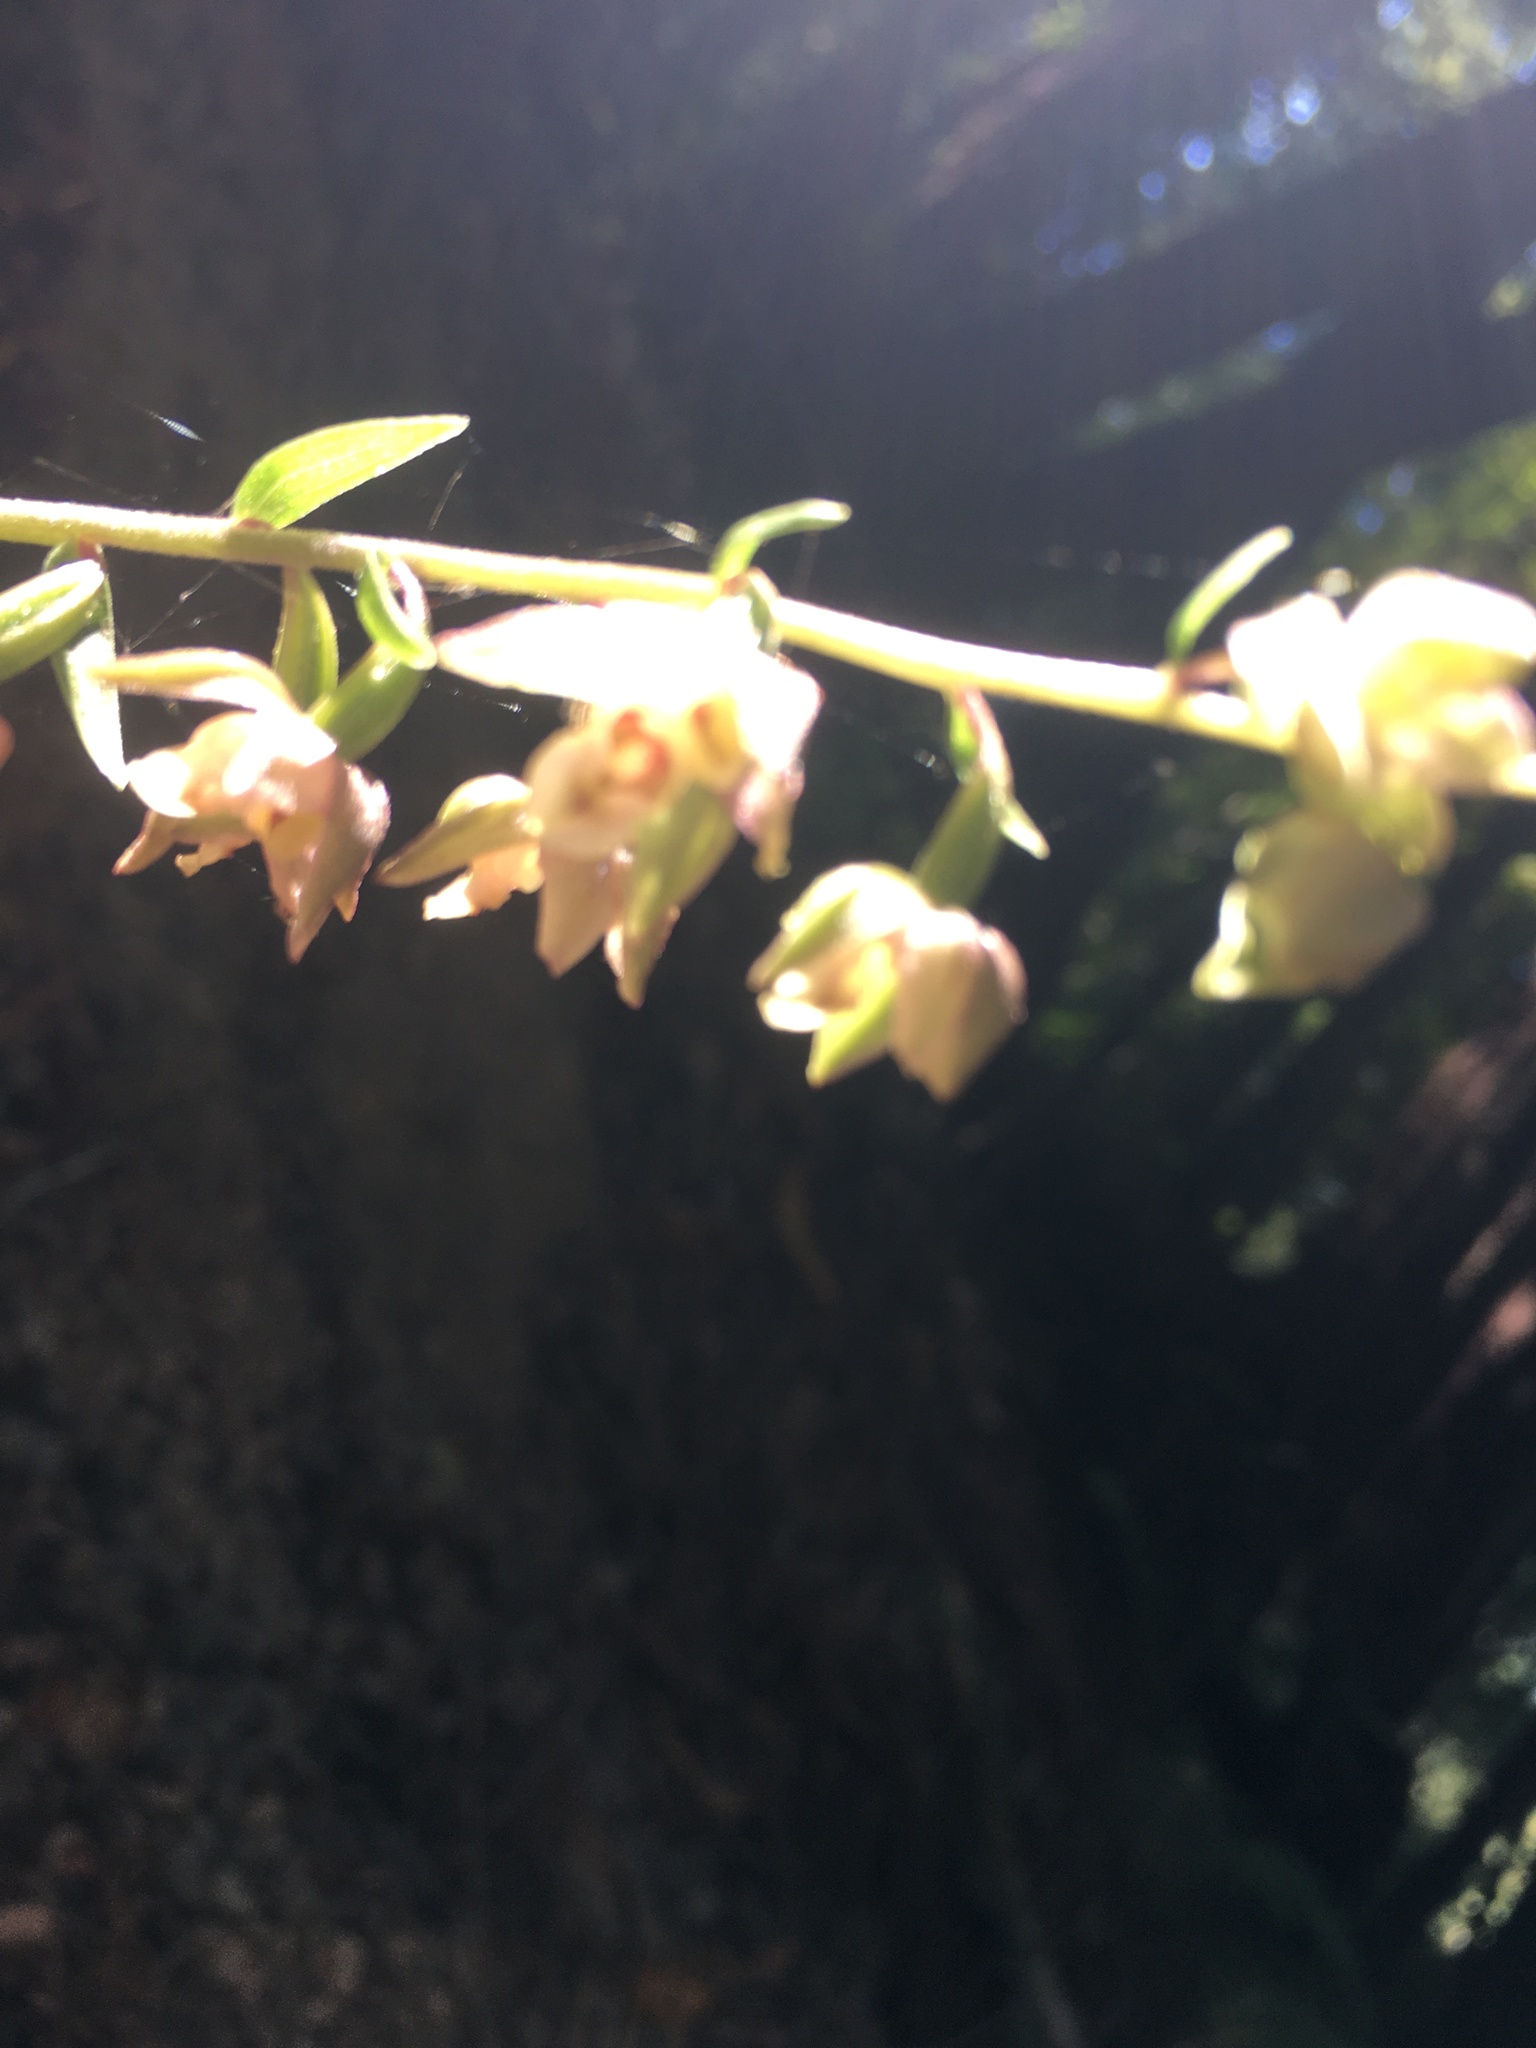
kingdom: Plantae
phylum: Tracheophyta
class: Liliopsida
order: Asparagales
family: Orchidaceae
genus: Epipactis
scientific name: Epipactis helleborine
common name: Broad-leaved helleborine
